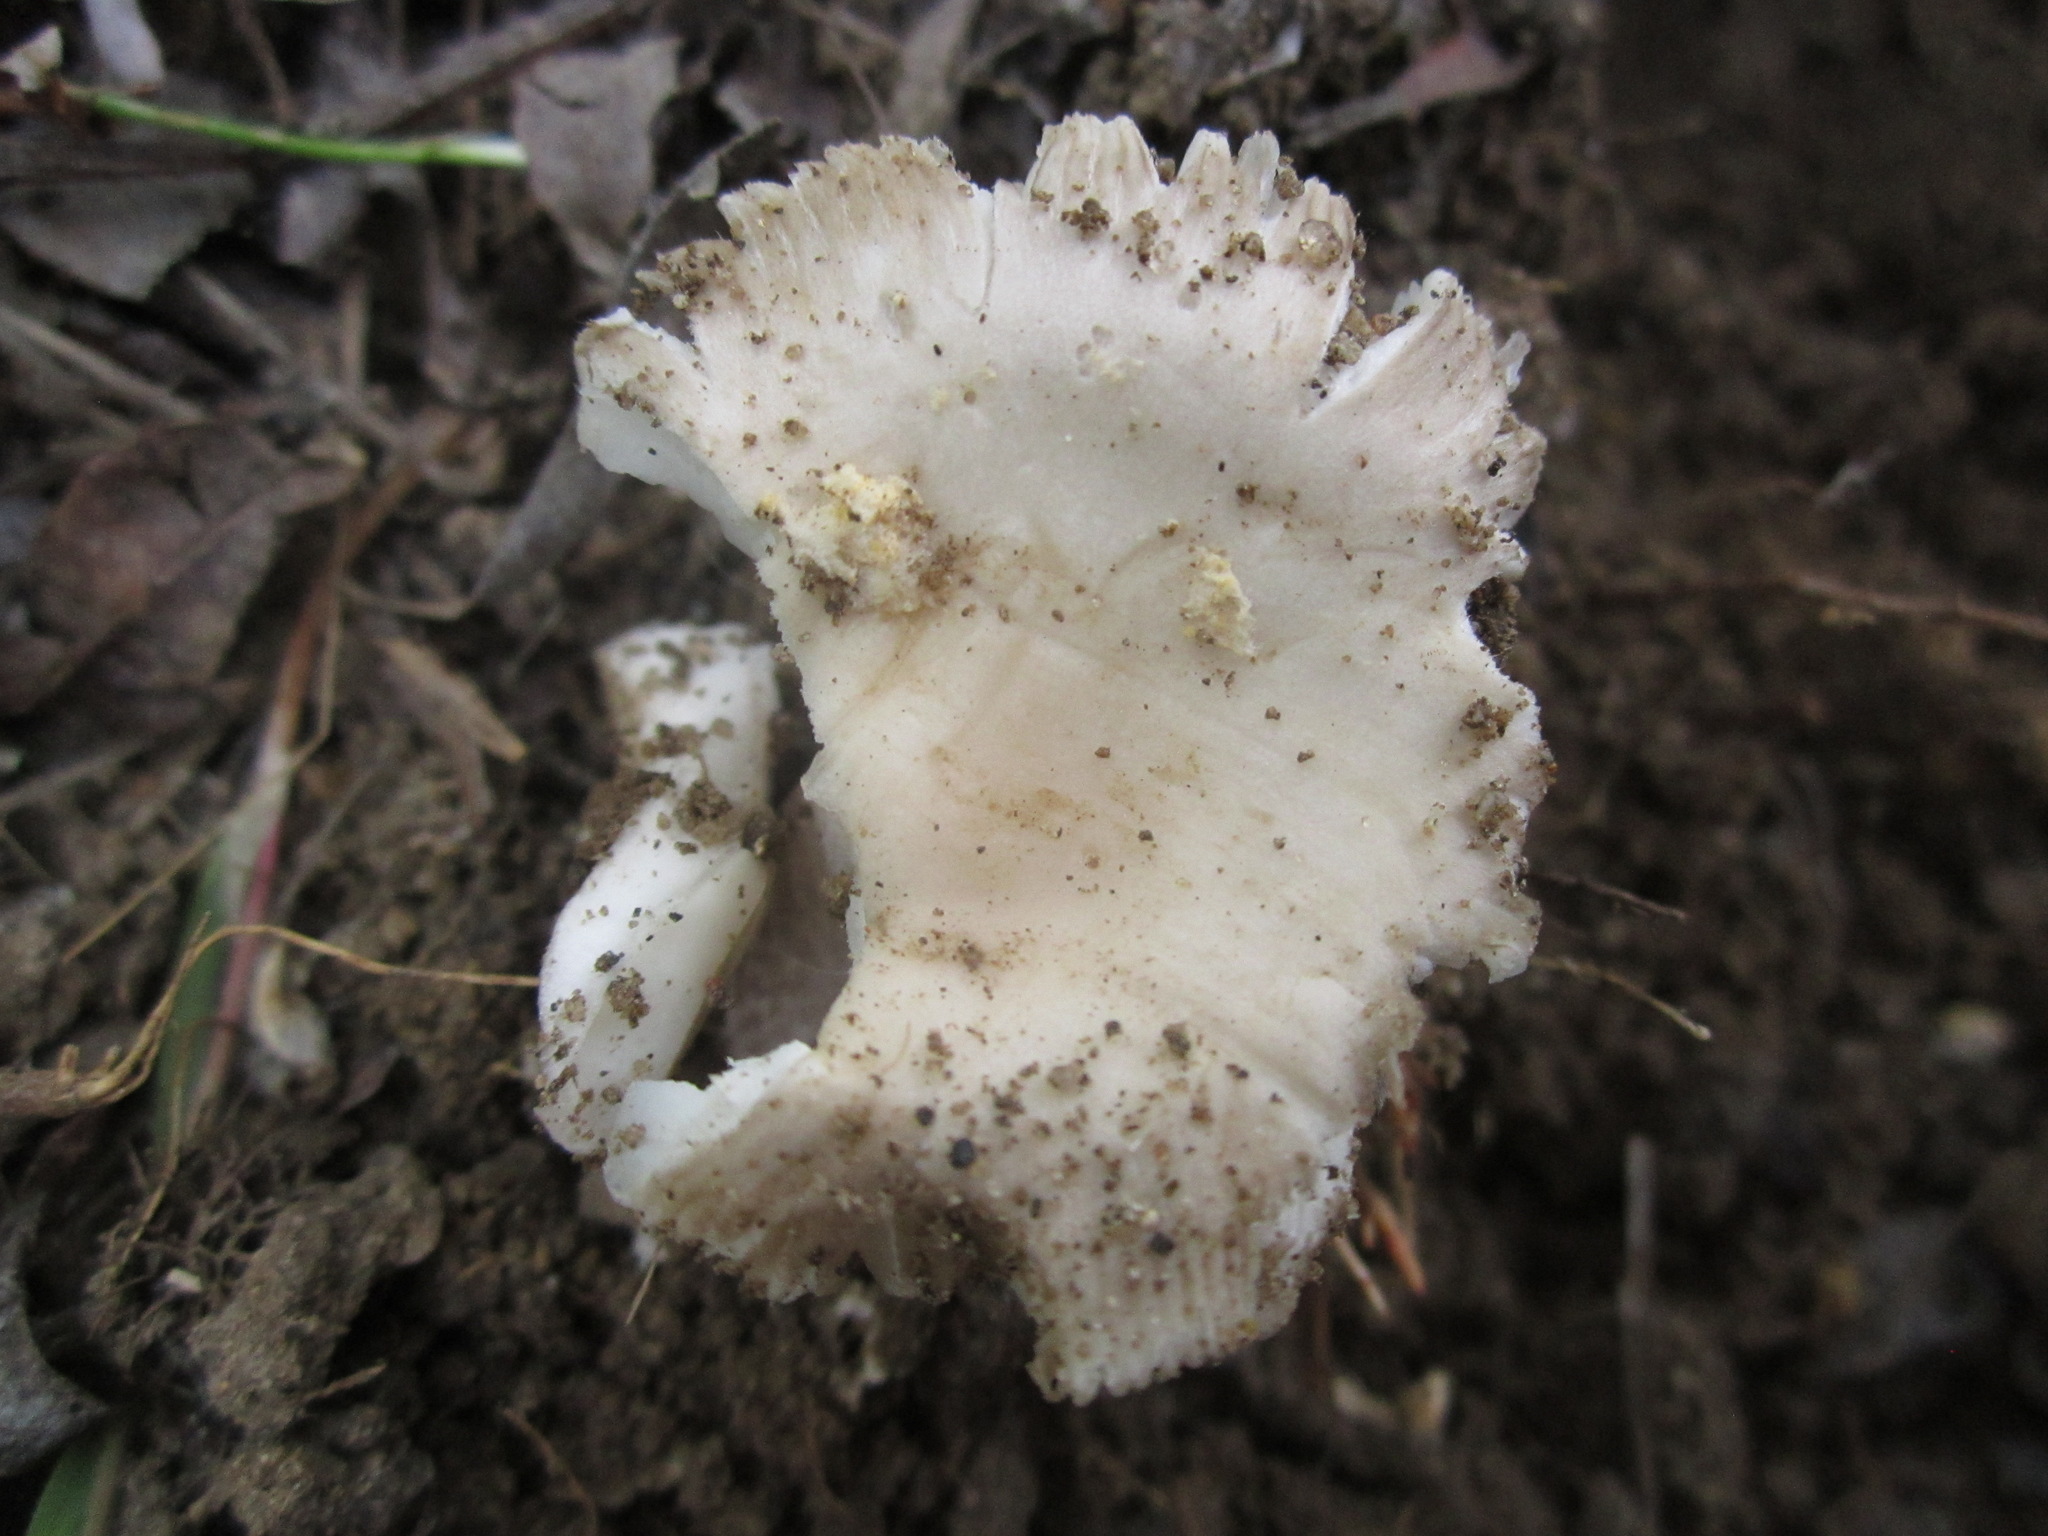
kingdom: Fungi
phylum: Basidiomycota
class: Agaricomycetes
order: Agaricales
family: Amanitaceae
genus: Amanita
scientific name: Amanita protecta
